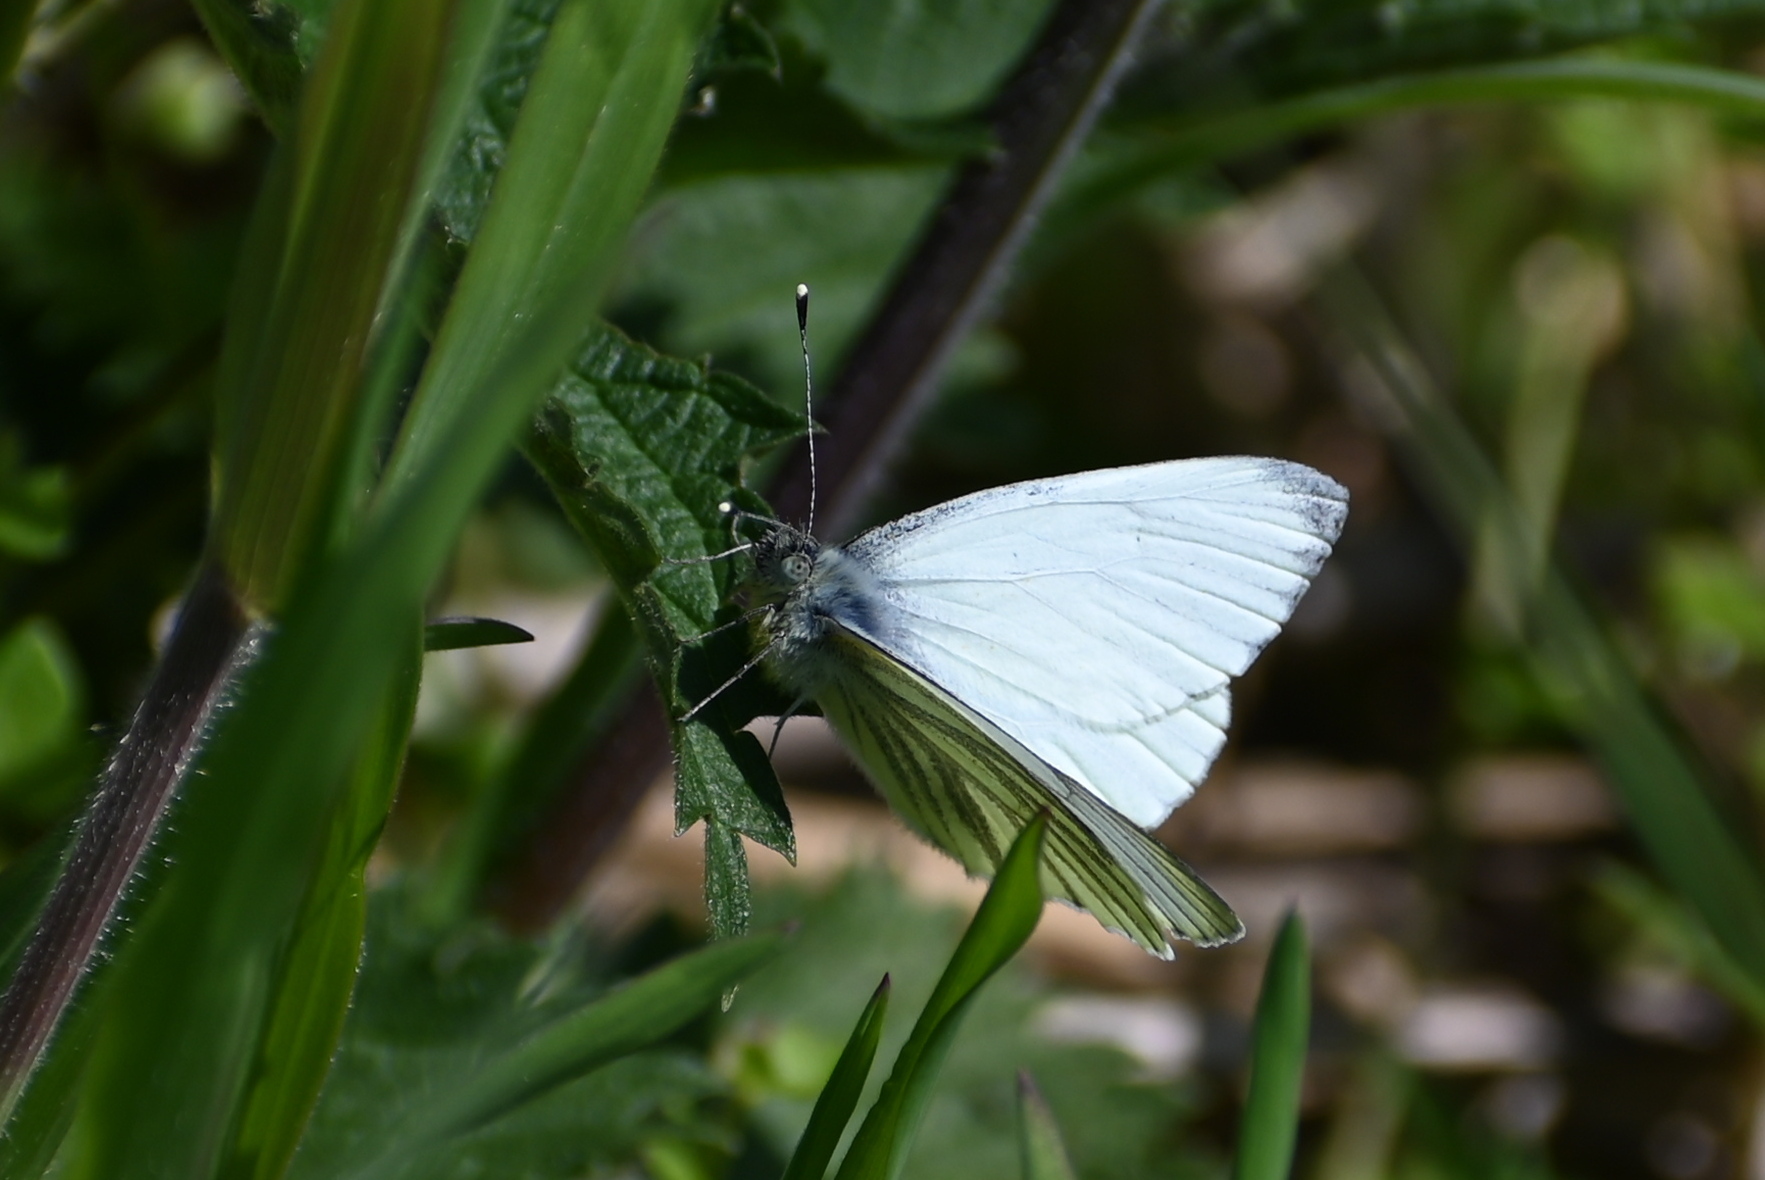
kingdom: Animalia
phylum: Arthropoda
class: Insecta
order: Lepidoptera
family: Pieridae
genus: Pieris
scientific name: Pieris napi
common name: Green-veined white
